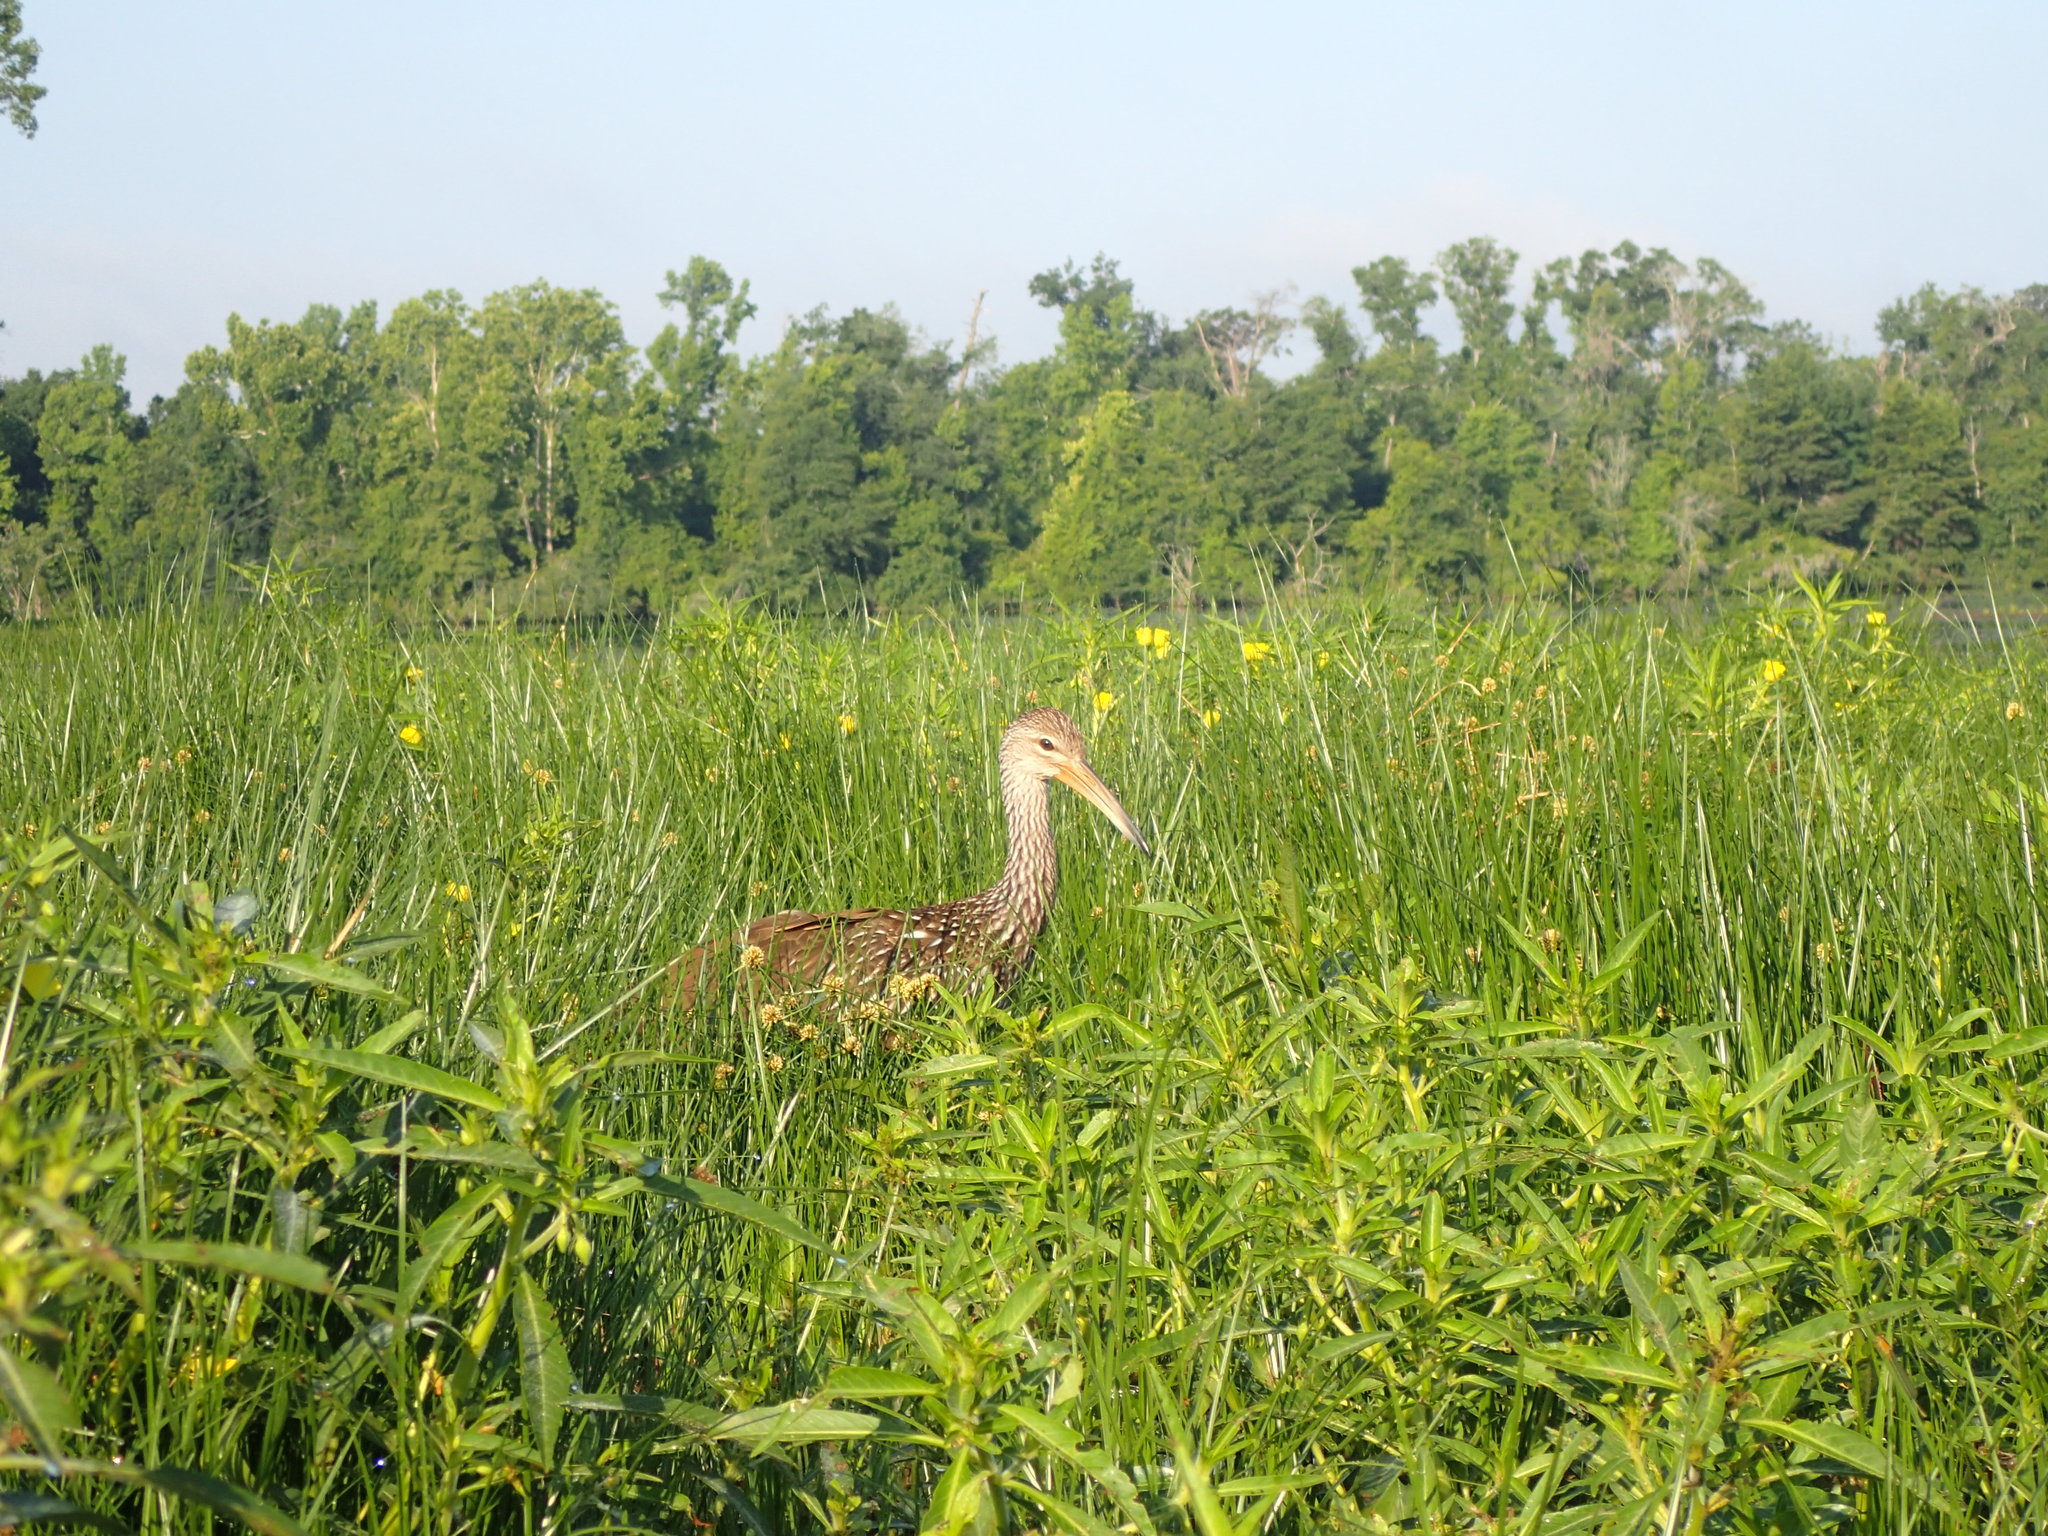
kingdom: Animalia
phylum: Chordata
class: Aves
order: Gruiformes
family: Aramidae
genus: Aramus
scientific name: Aramus guarauna
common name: Limpkin
